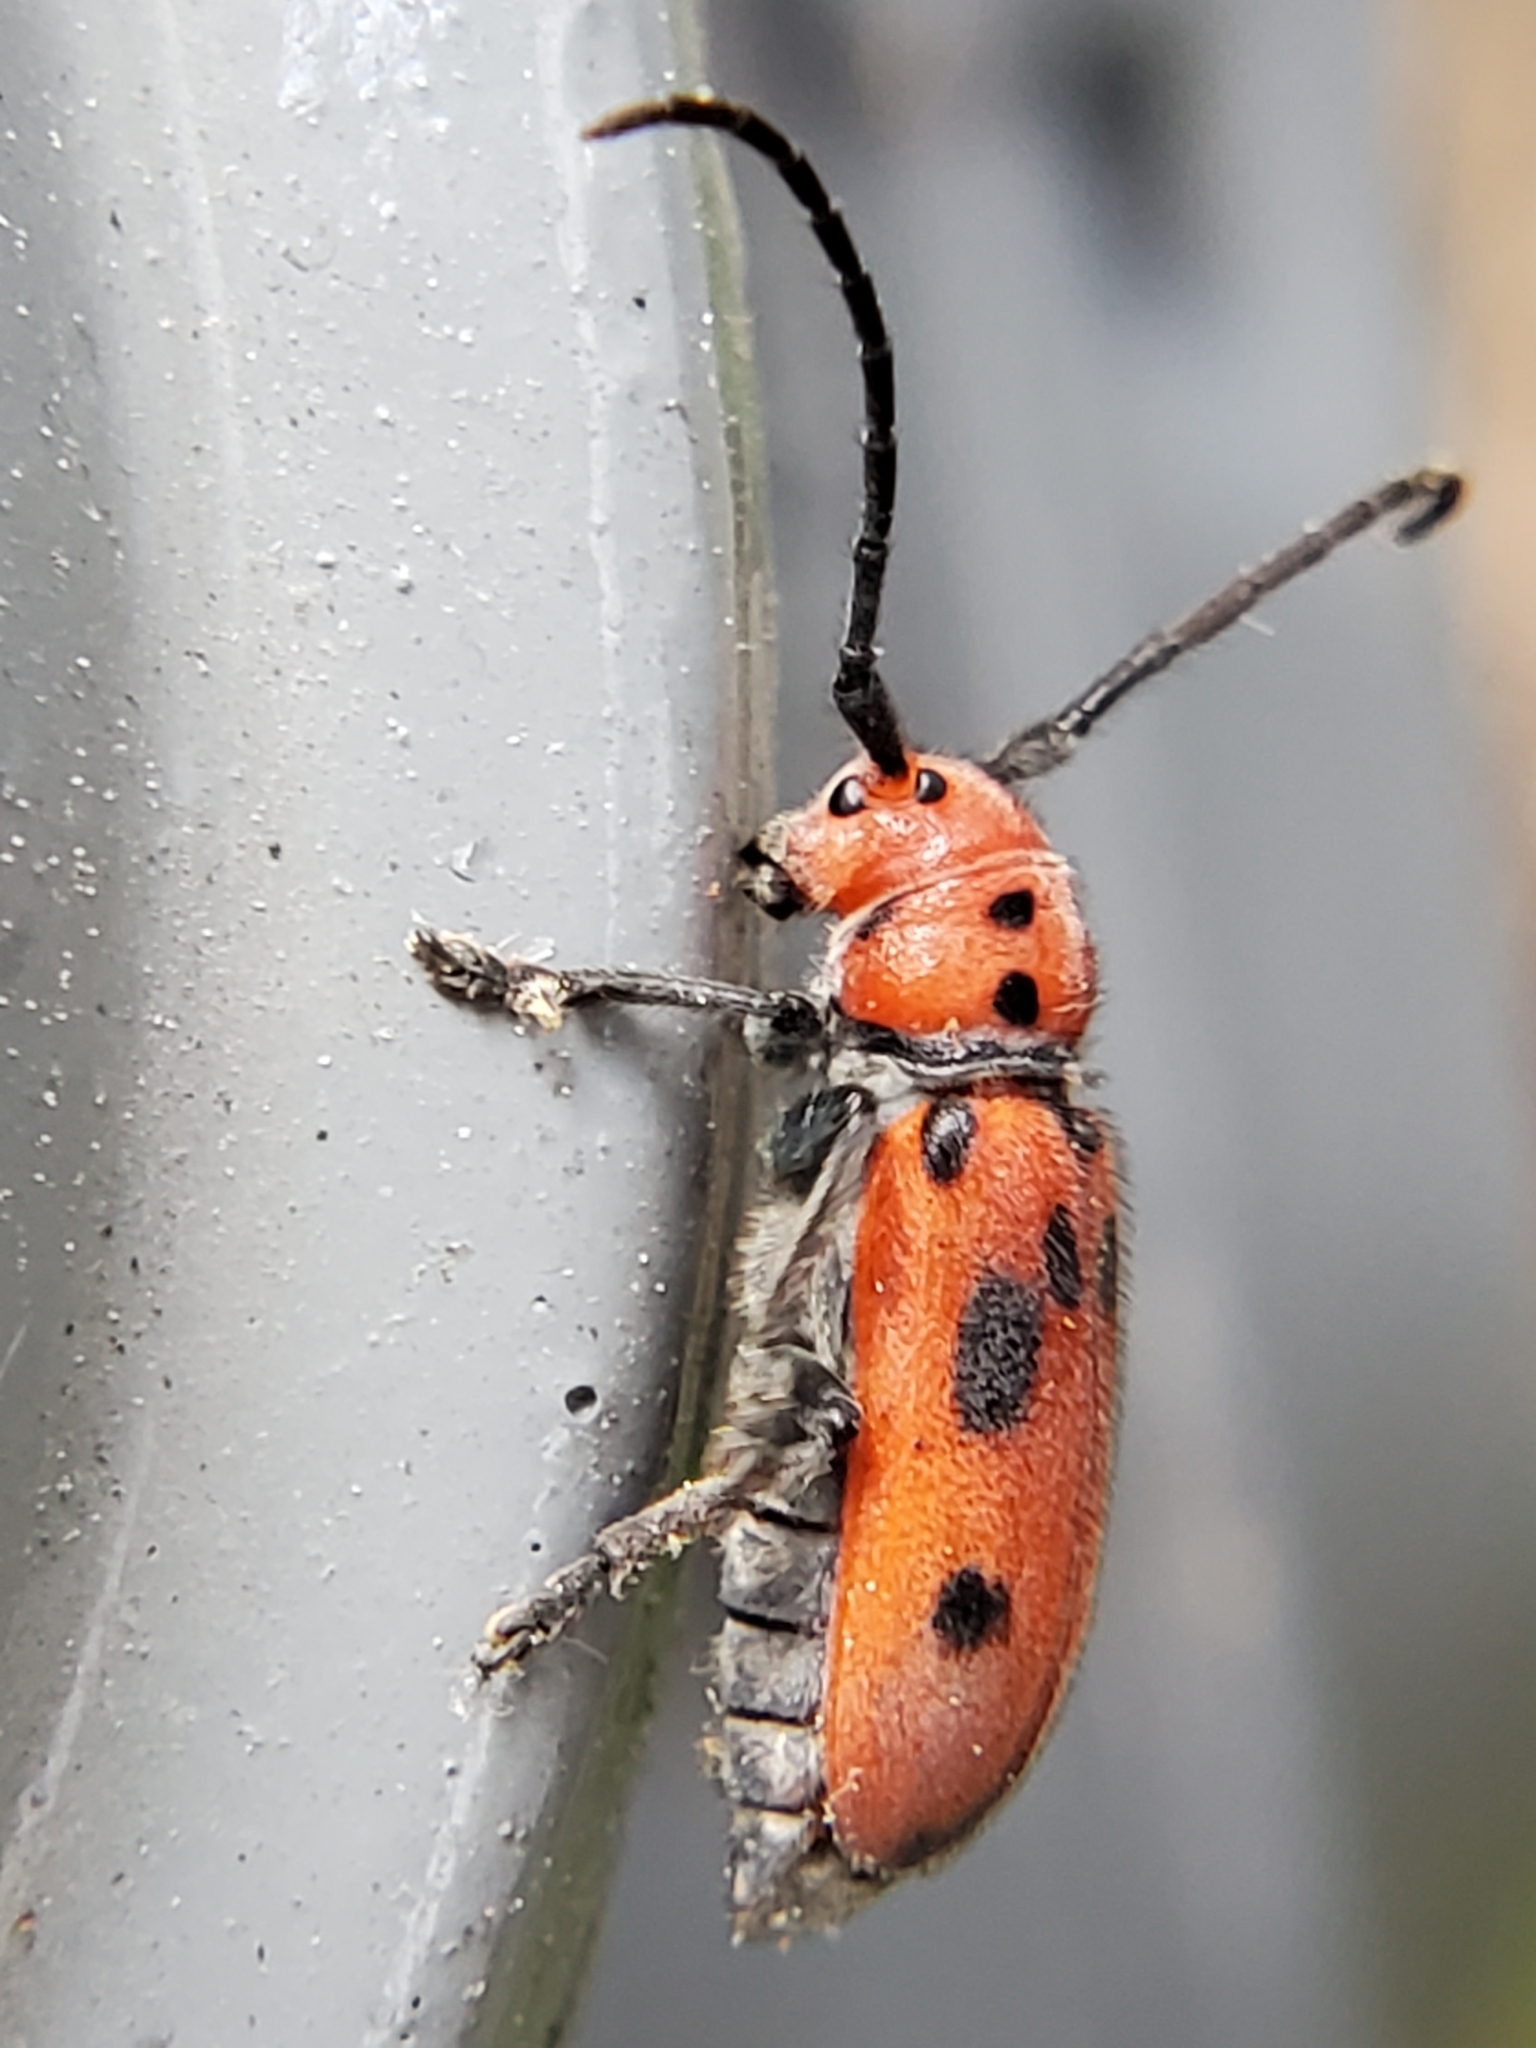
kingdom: Animalia
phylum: Arthropoda
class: Insecta
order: Coleoptera
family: Cerambycidae
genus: Tetraopes
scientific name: Tetraopes tetrophthalmus
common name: Red milkweed beetle
